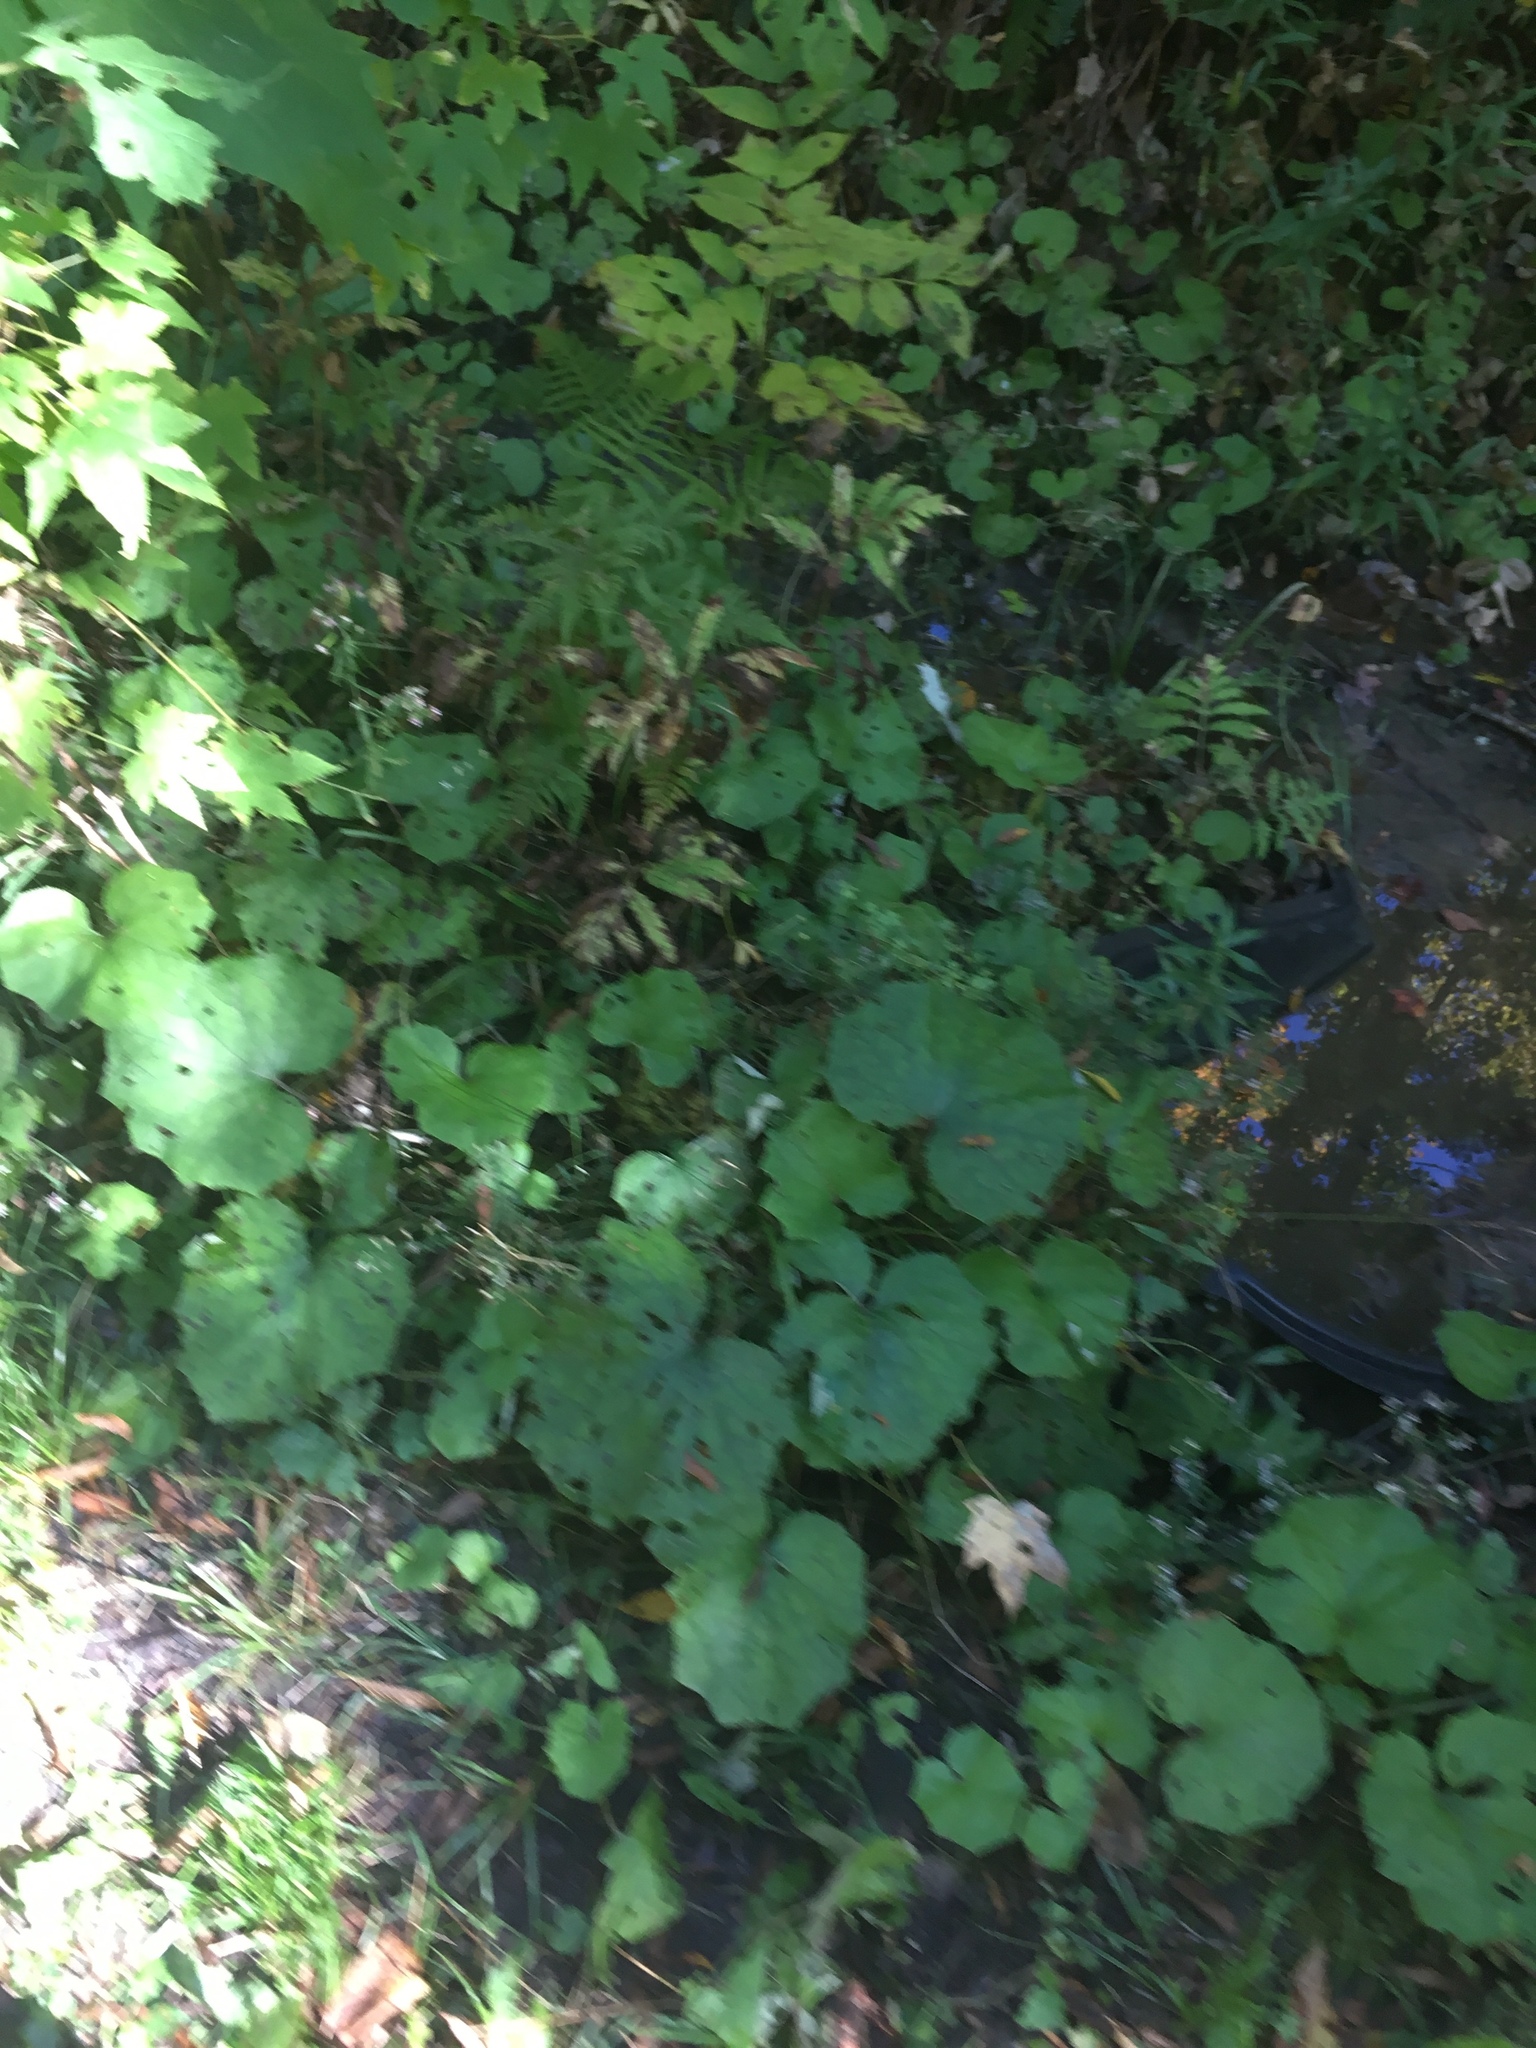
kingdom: Plantae
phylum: Tracheophyta
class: Magnoliopsida
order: Asterales
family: Asteraceae
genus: Tussilago
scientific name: Tussilago farfara
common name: Coltsfoot
